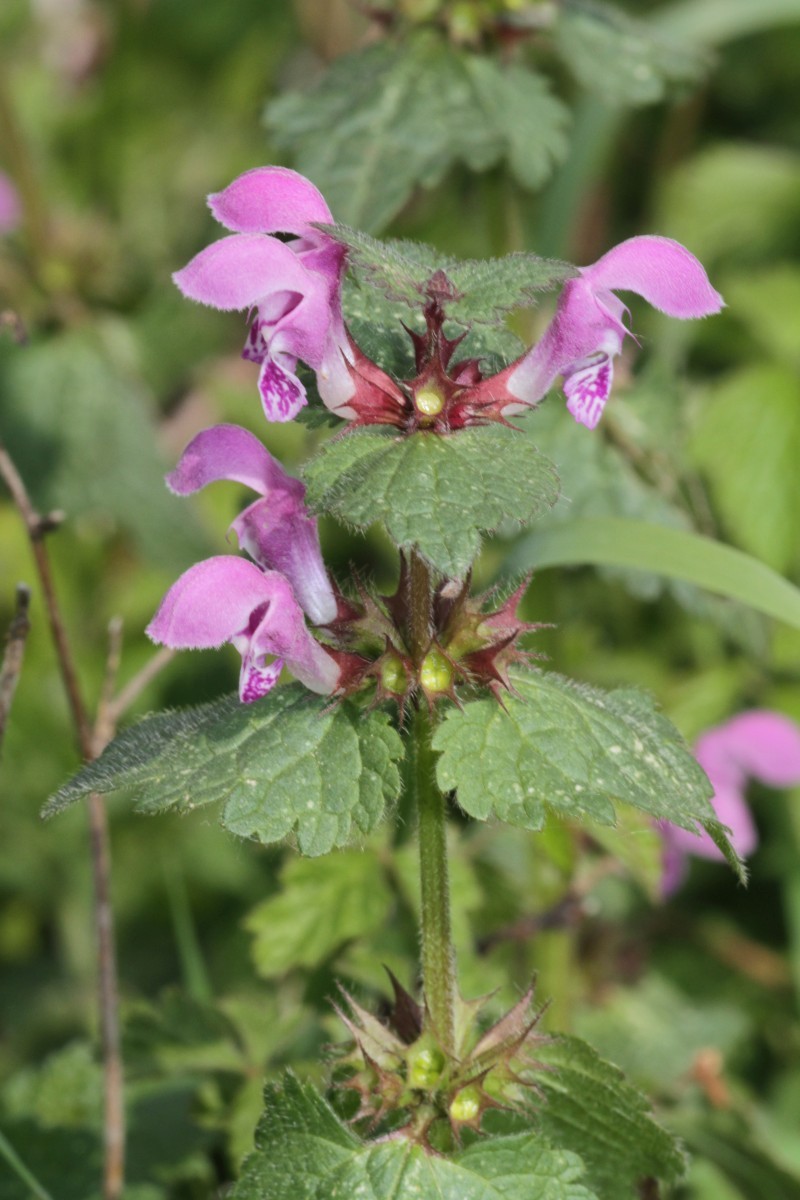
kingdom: Plantae
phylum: Tracheophyta
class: Magnoliopsida
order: Lamiales
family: Lamiaceae
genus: Lamium
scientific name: Lamium maculatum
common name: Spotted dead-nettle
